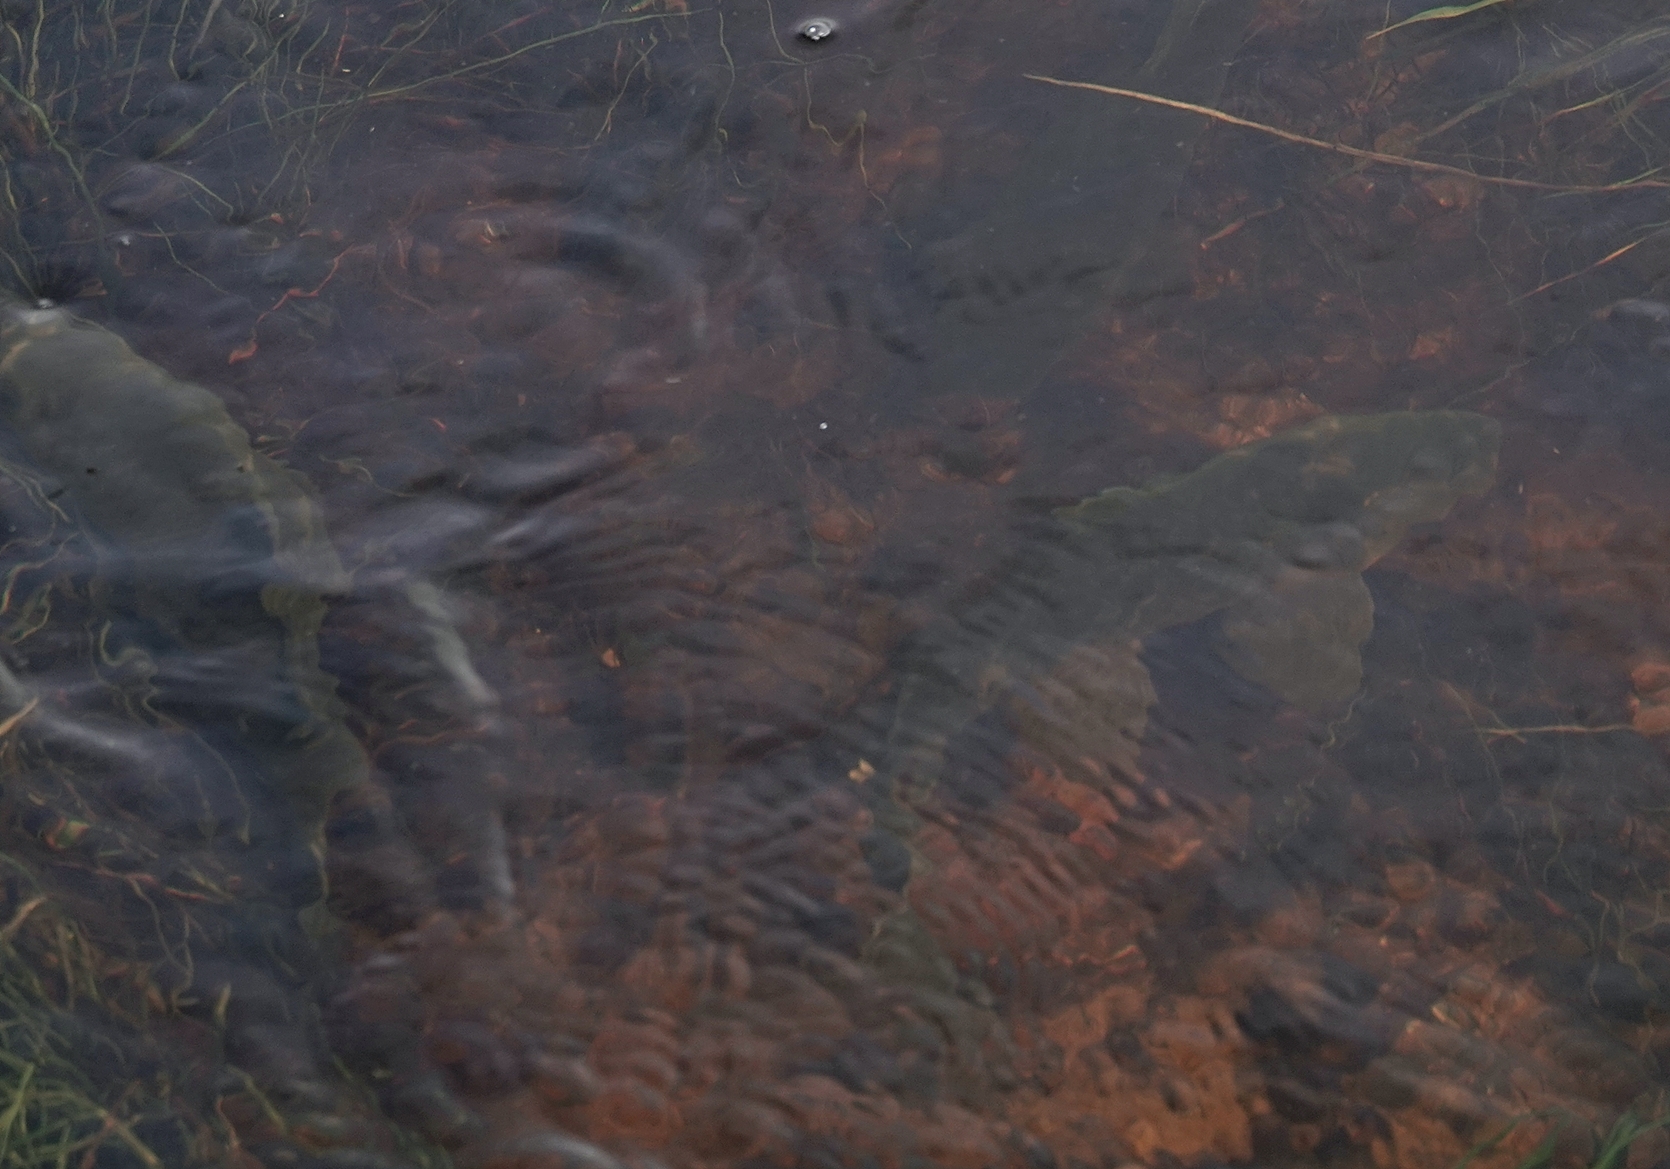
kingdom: Animalia
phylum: Chordata
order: Cypriniformes
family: Cyprinidae
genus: Cyprinus
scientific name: Cyprinus carpio
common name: Common carp
